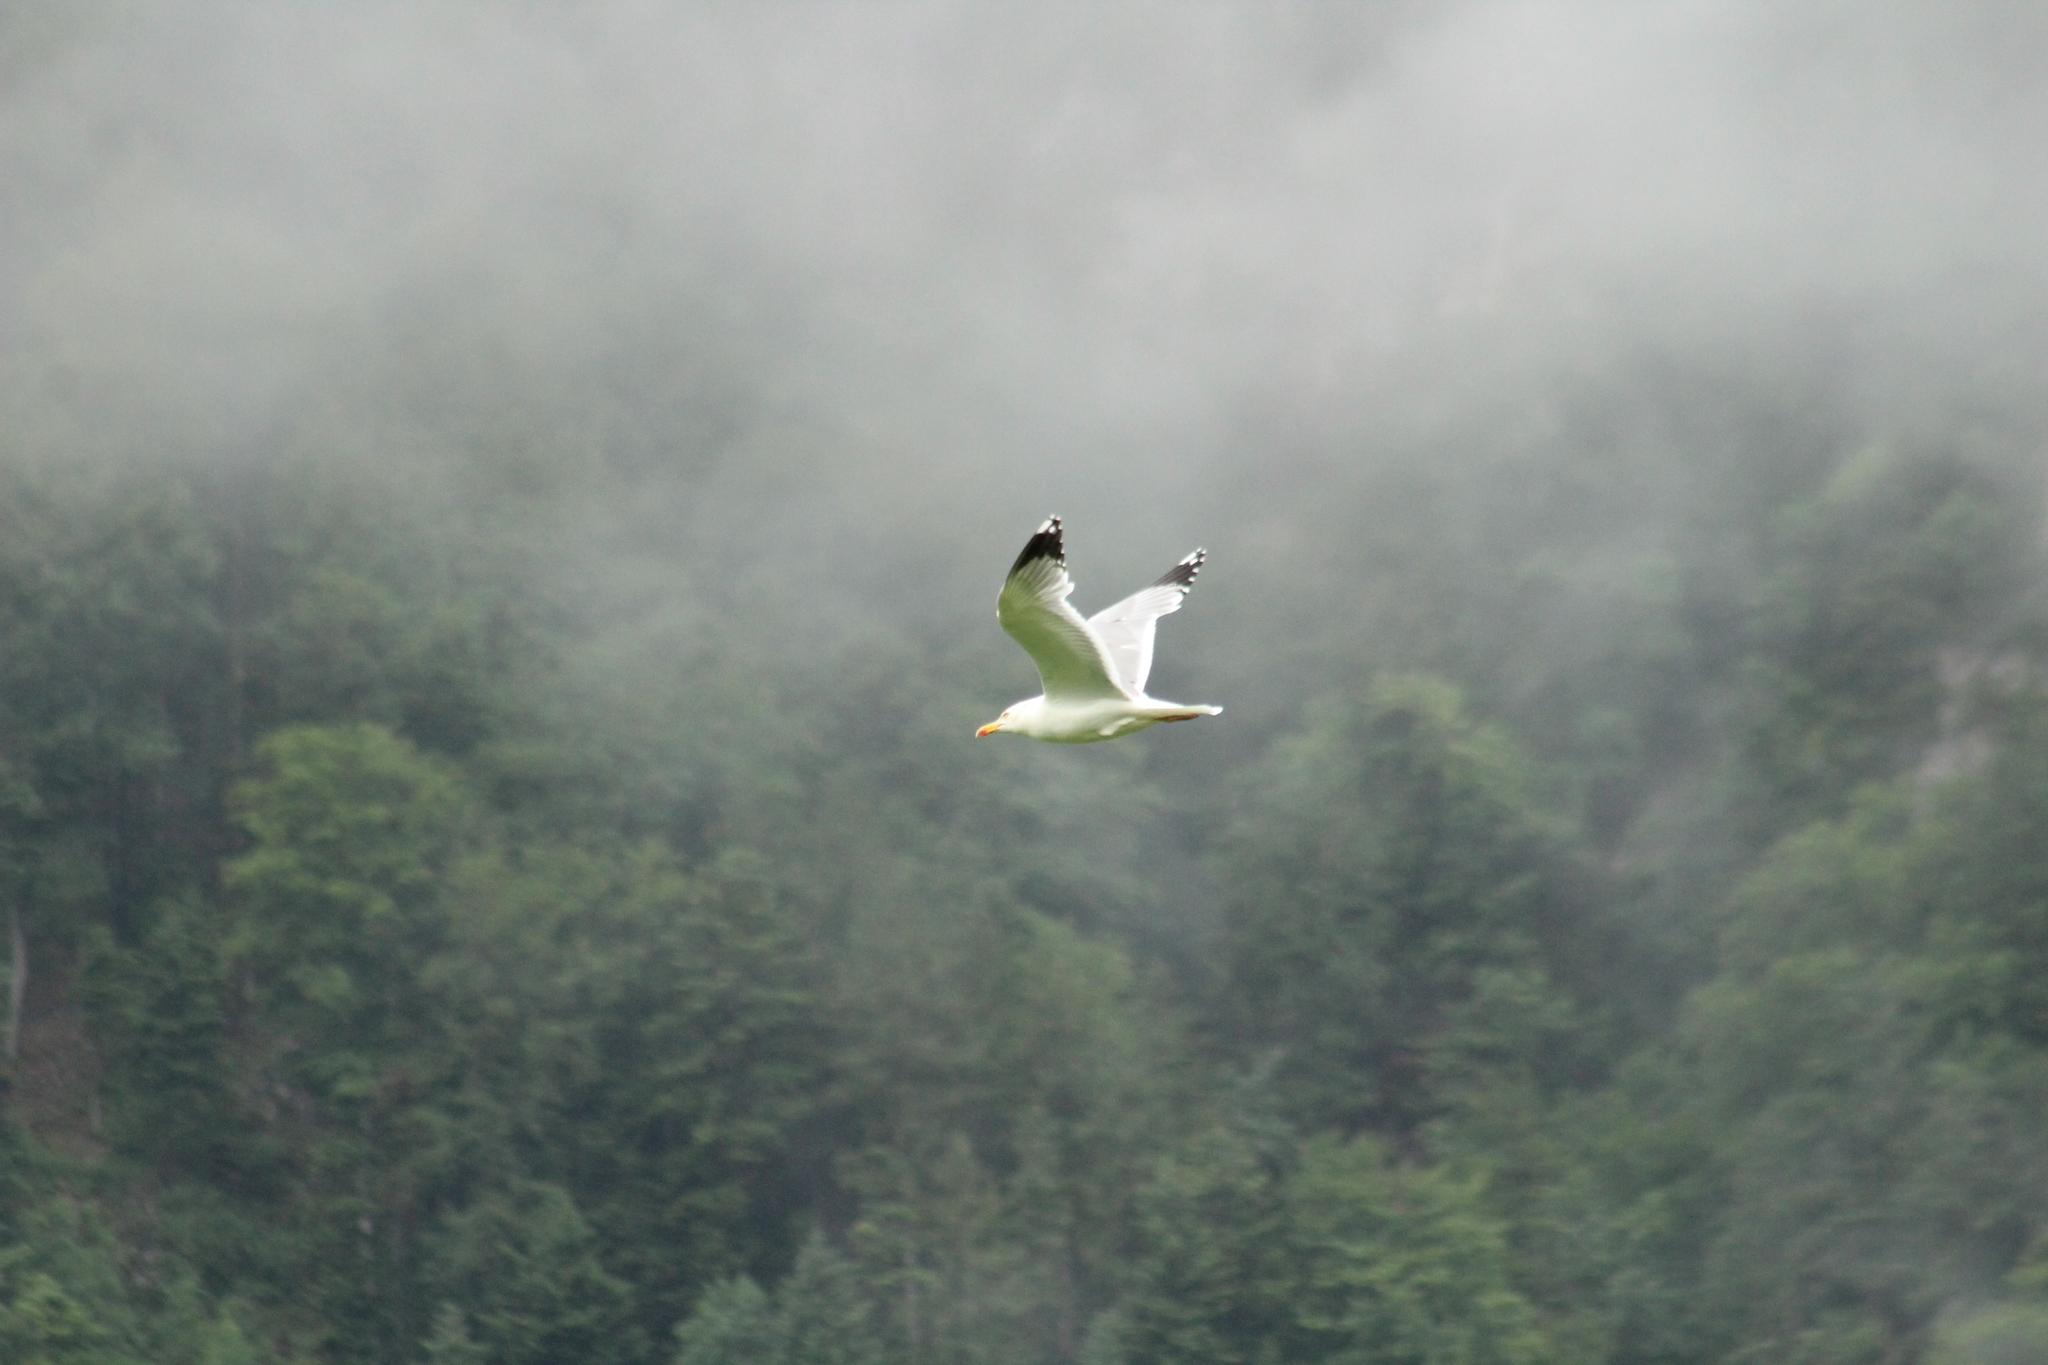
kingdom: Animalia
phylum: Chordata
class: Aves
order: Charadriiformes
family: Laridae
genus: Larus
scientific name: Larus michahellis
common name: Yellow-legged gull
